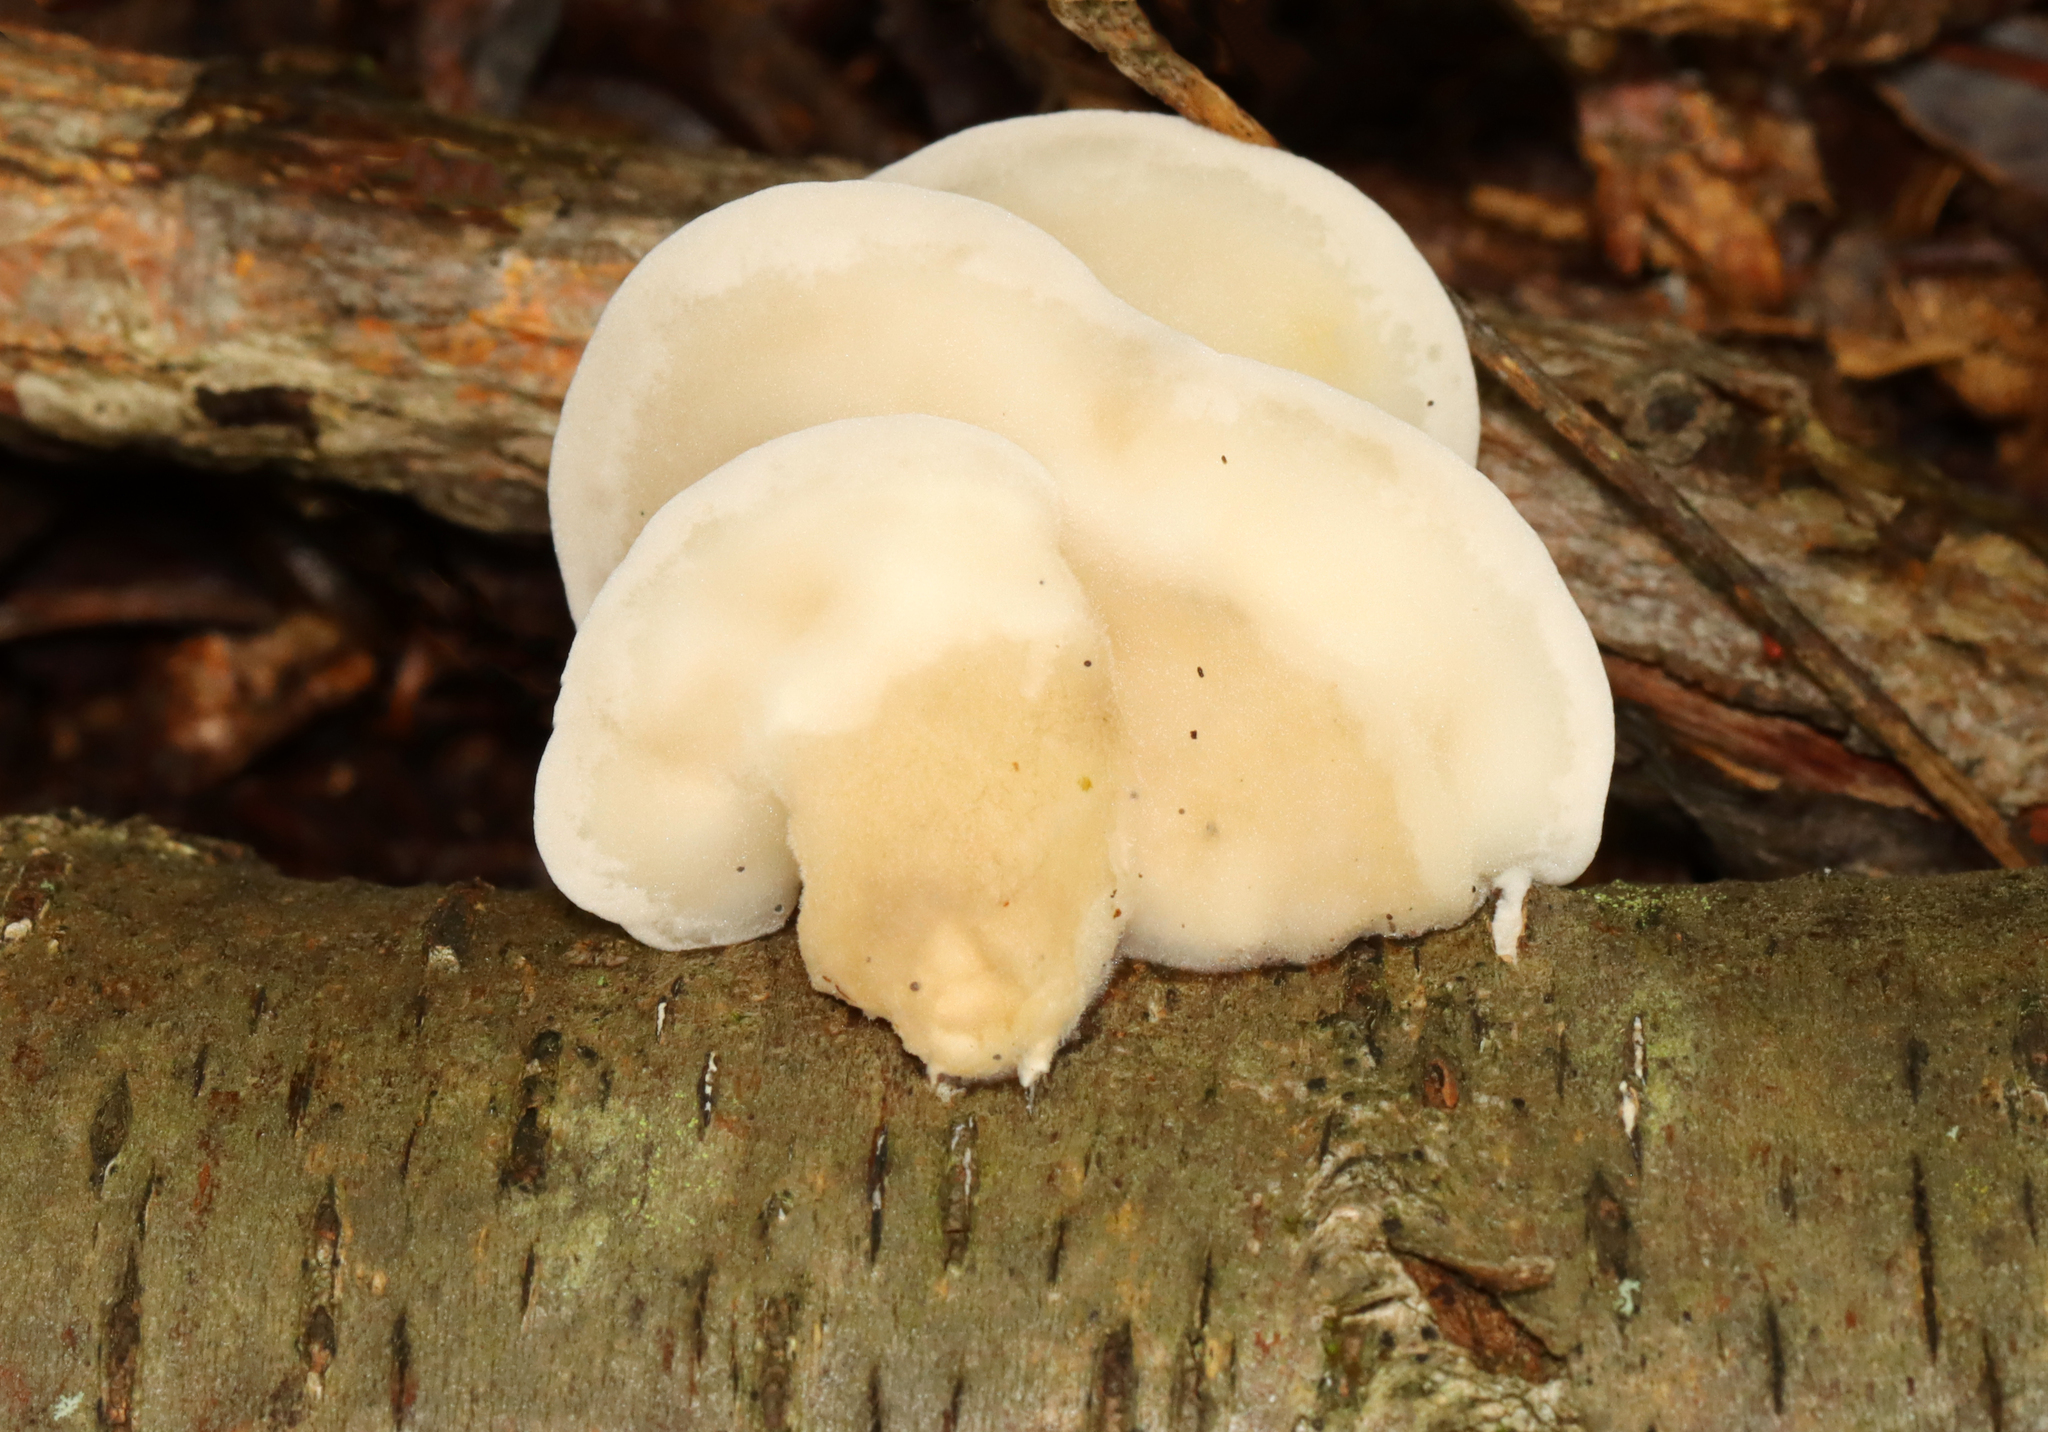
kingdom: Fungi
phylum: Basidiomycota
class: Agaricomycetes
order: Polyporales
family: Incrustoporiaceae
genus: Tyromyces
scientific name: Tyromyces chioneus
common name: White cheese polypore
